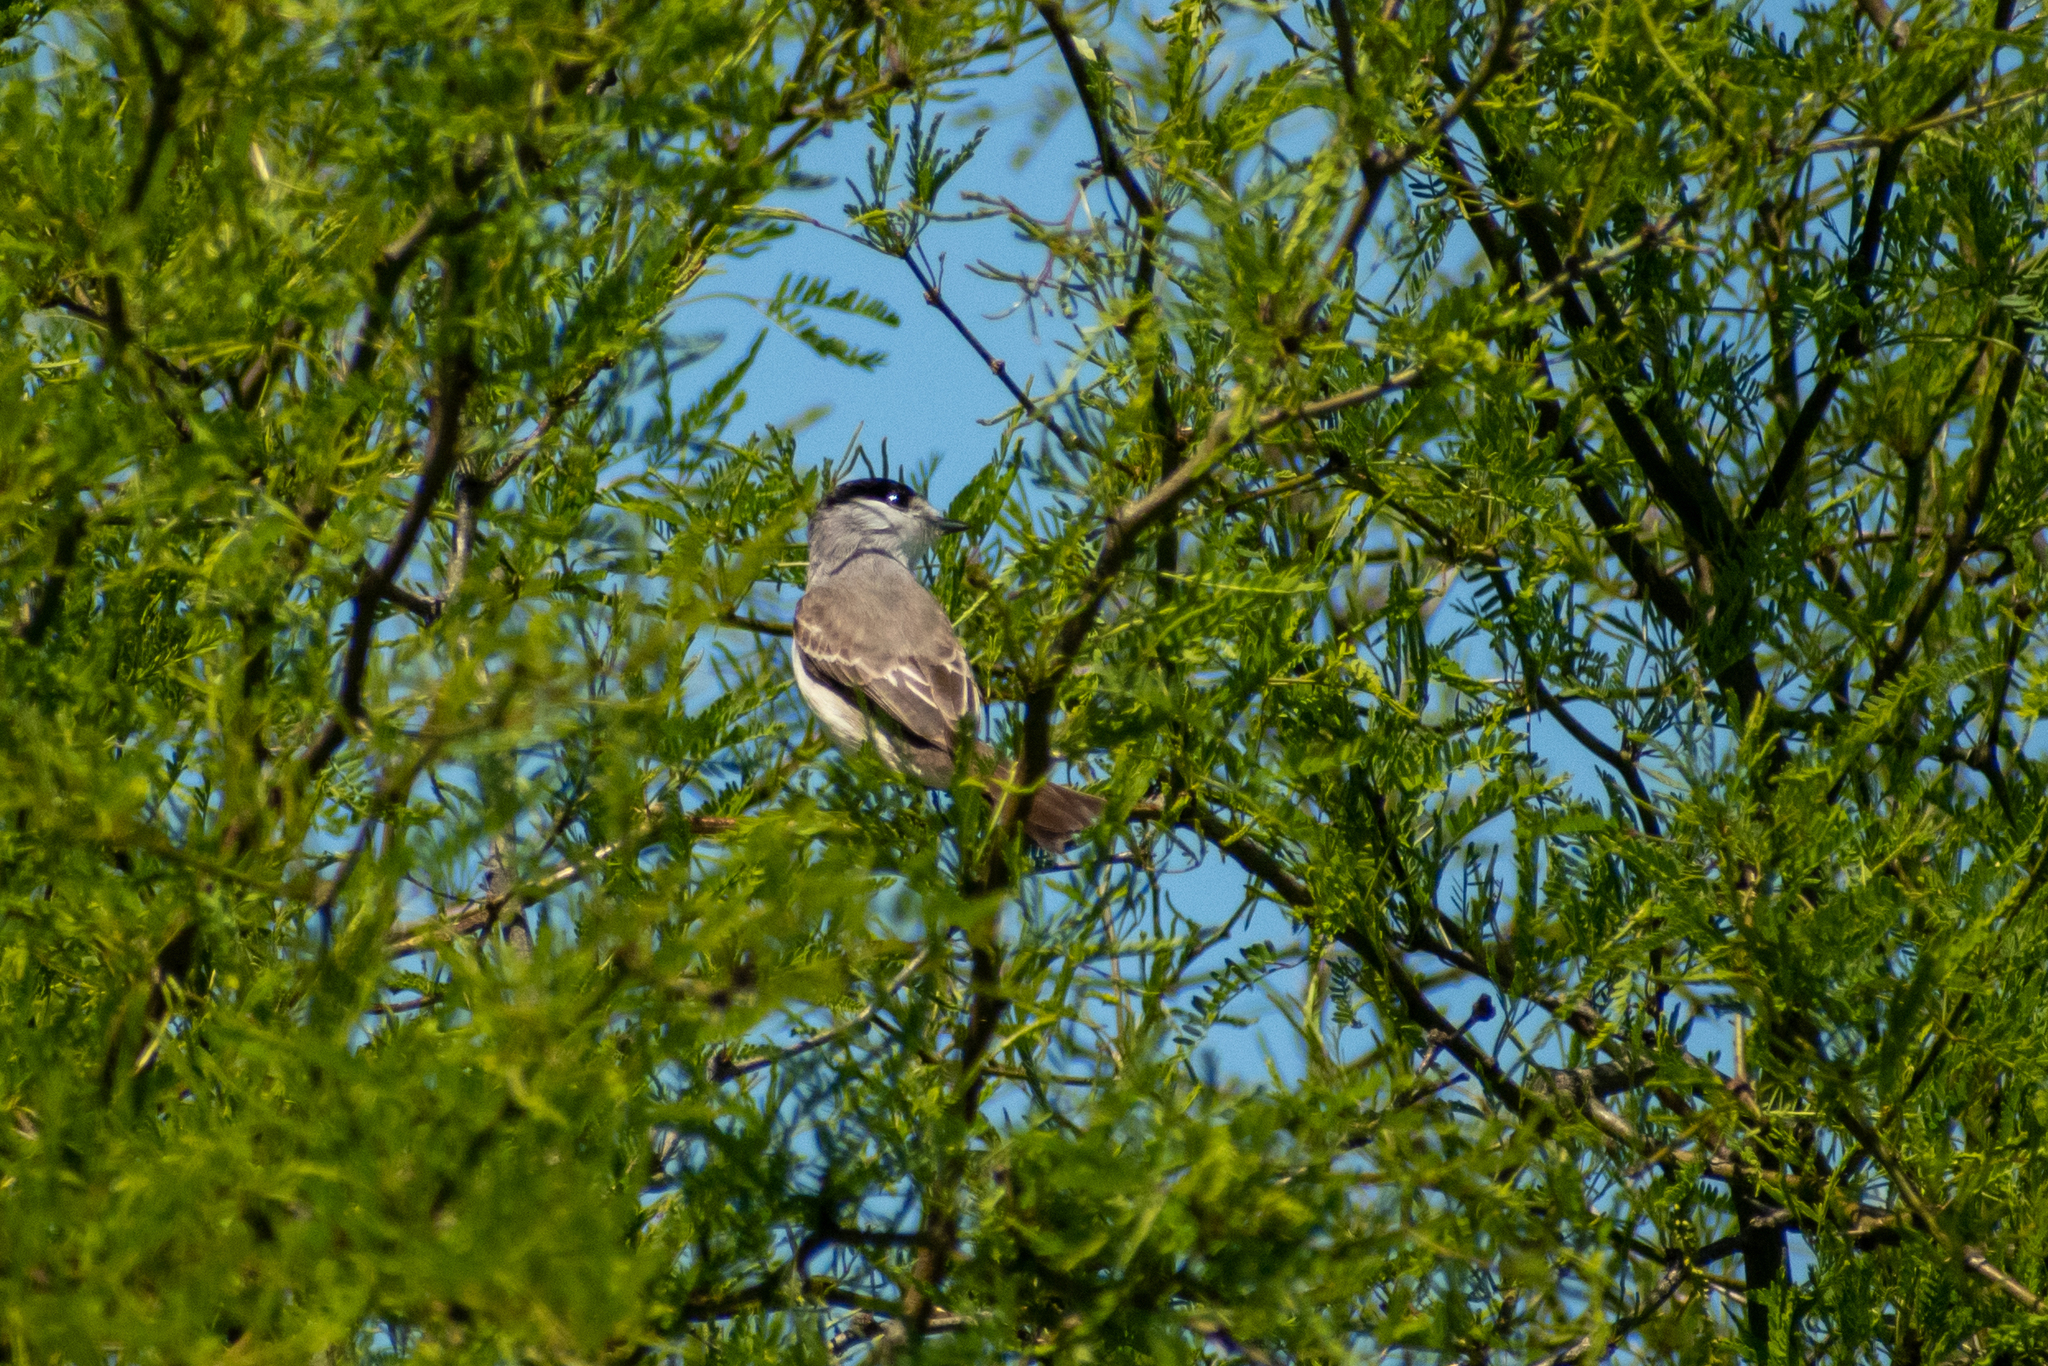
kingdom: Animalia
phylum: Chordata
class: Aves
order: Passeriformes
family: Cotingidae
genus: Xenopsaris
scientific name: Xenopsaris albinucha
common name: White-naped xenopsaris
